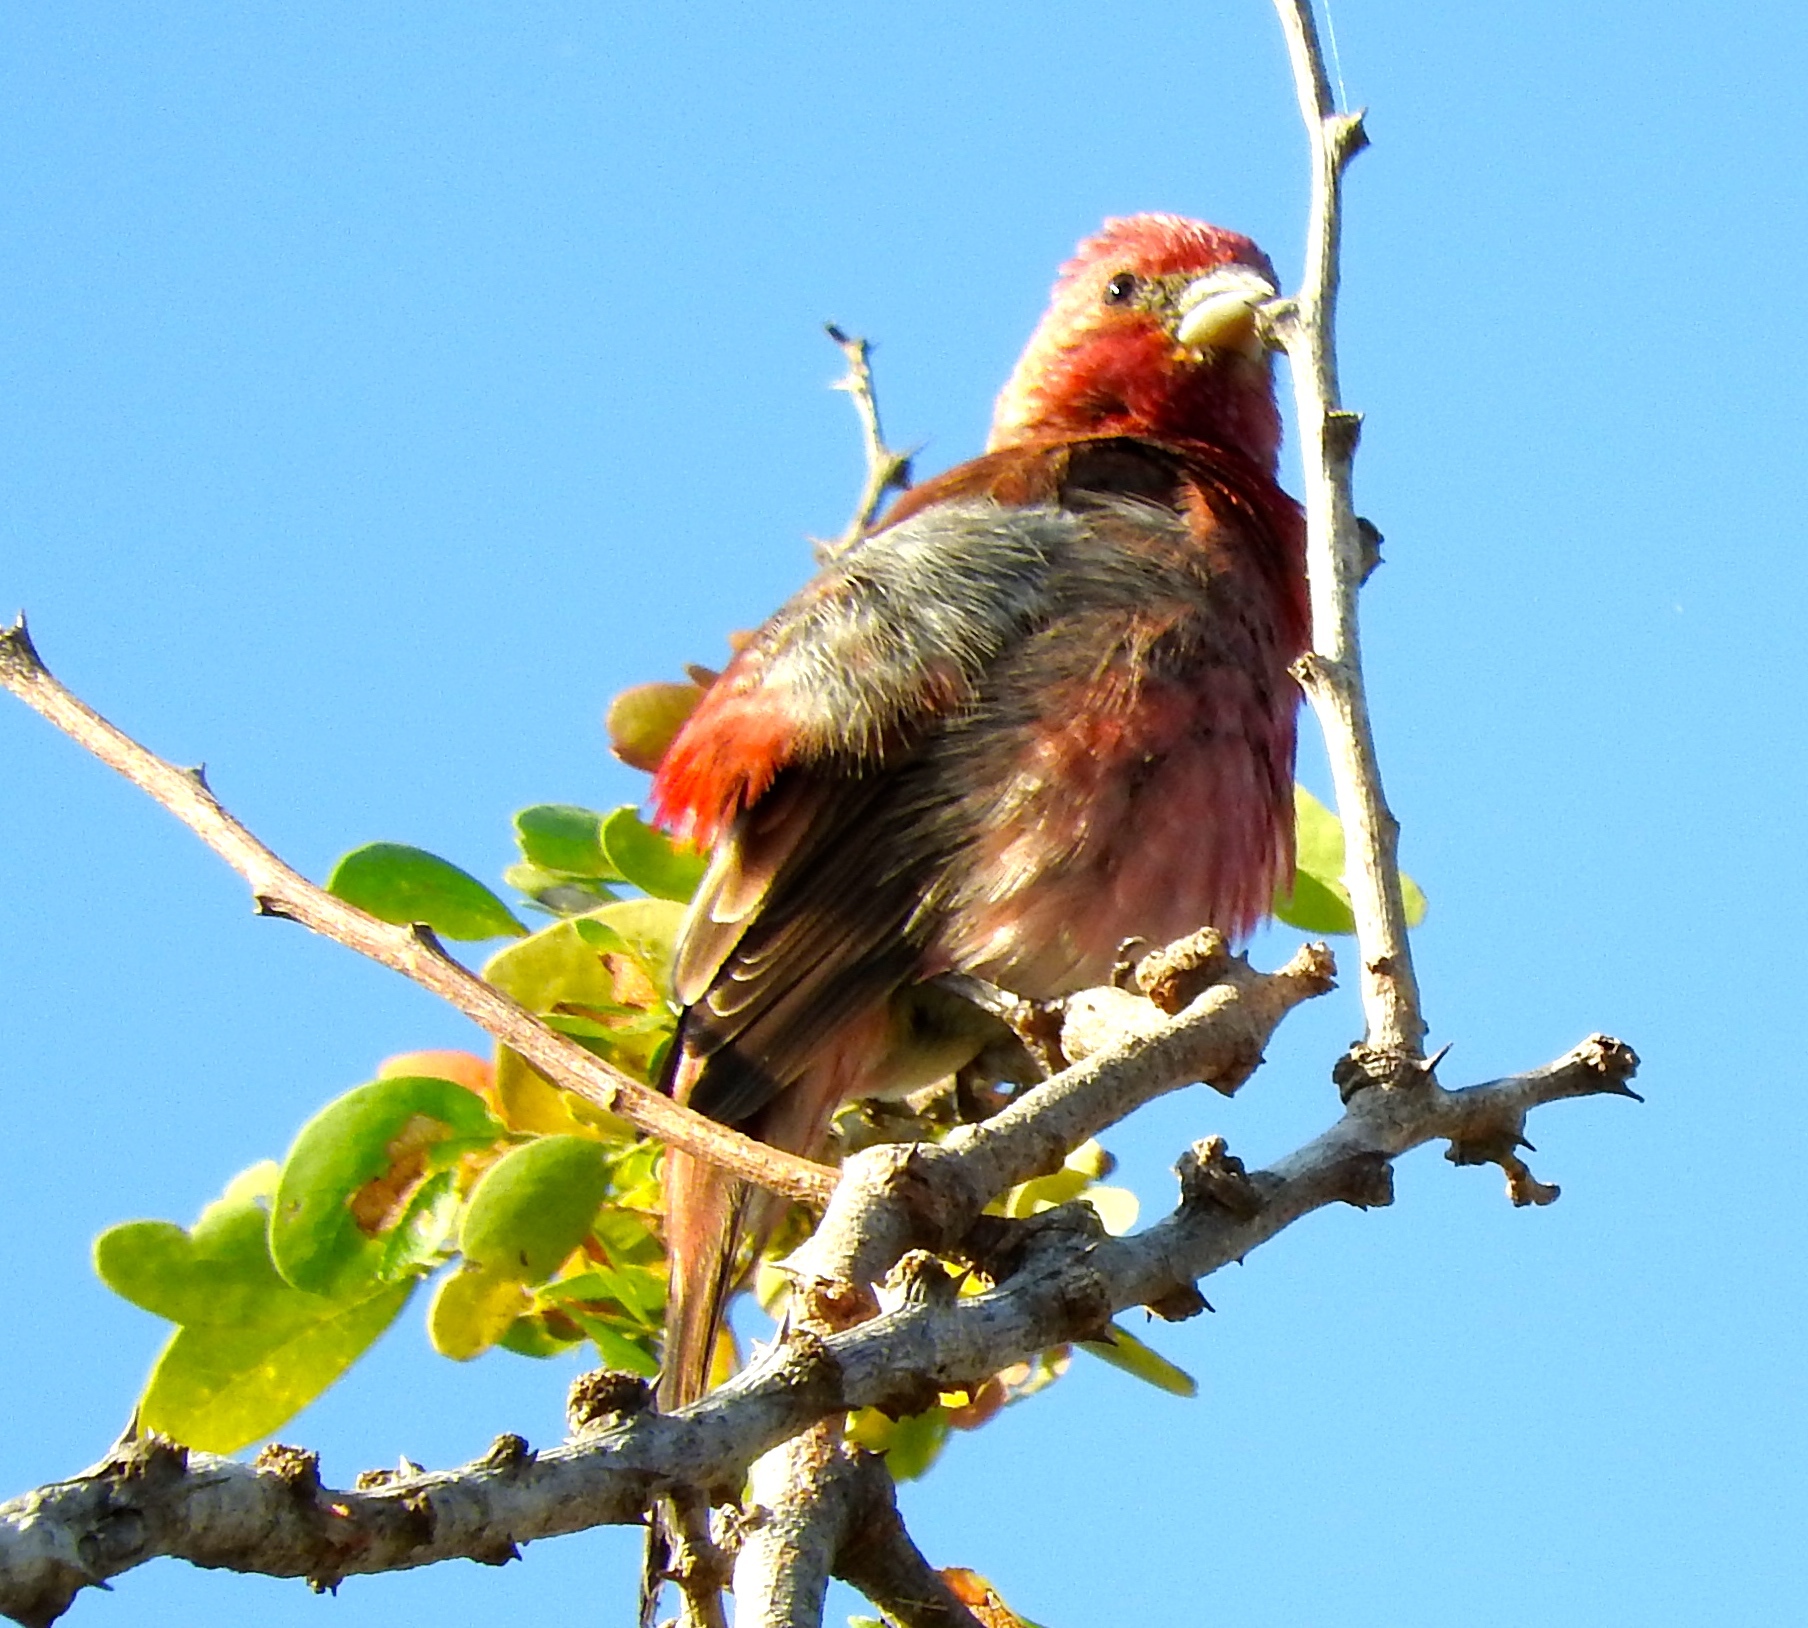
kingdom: Animalia
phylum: Chordata
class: Aves
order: Passeriformes
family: Fringillidae
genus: Haemorhous
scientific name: Haemorhous mexicanus
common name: House finch
